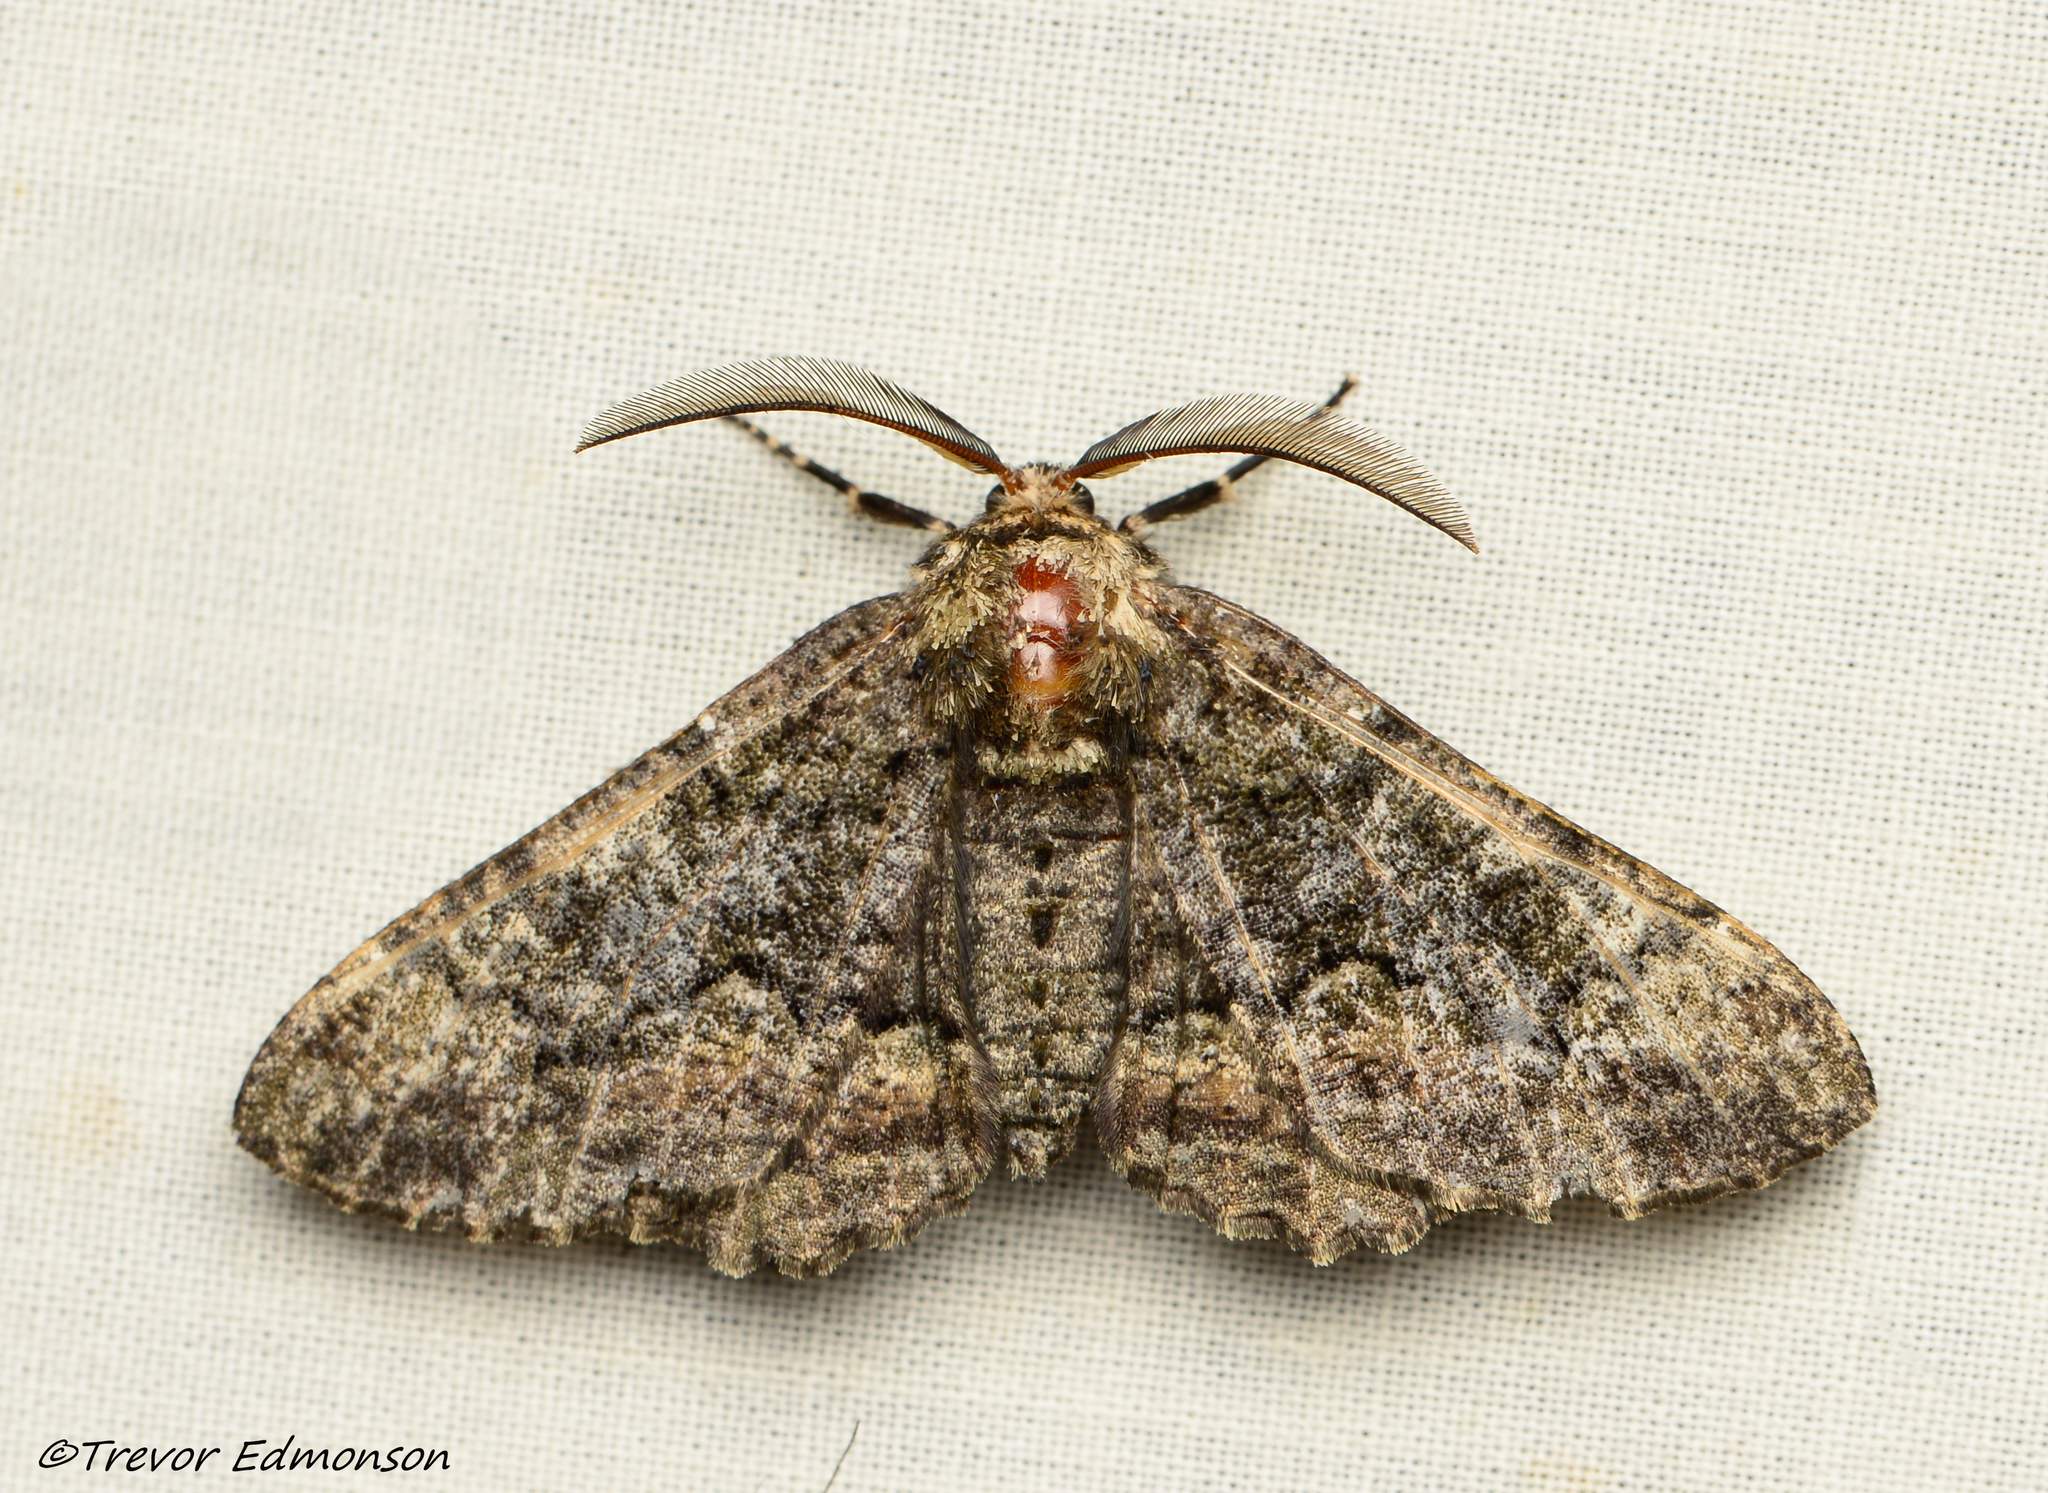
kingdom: Animalia
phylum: Arthropoda
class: Insecta
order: Lepidoptera
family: Geometridae
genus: Phaeoura
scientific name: Phaeoura quernaria
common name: Oak beauty
